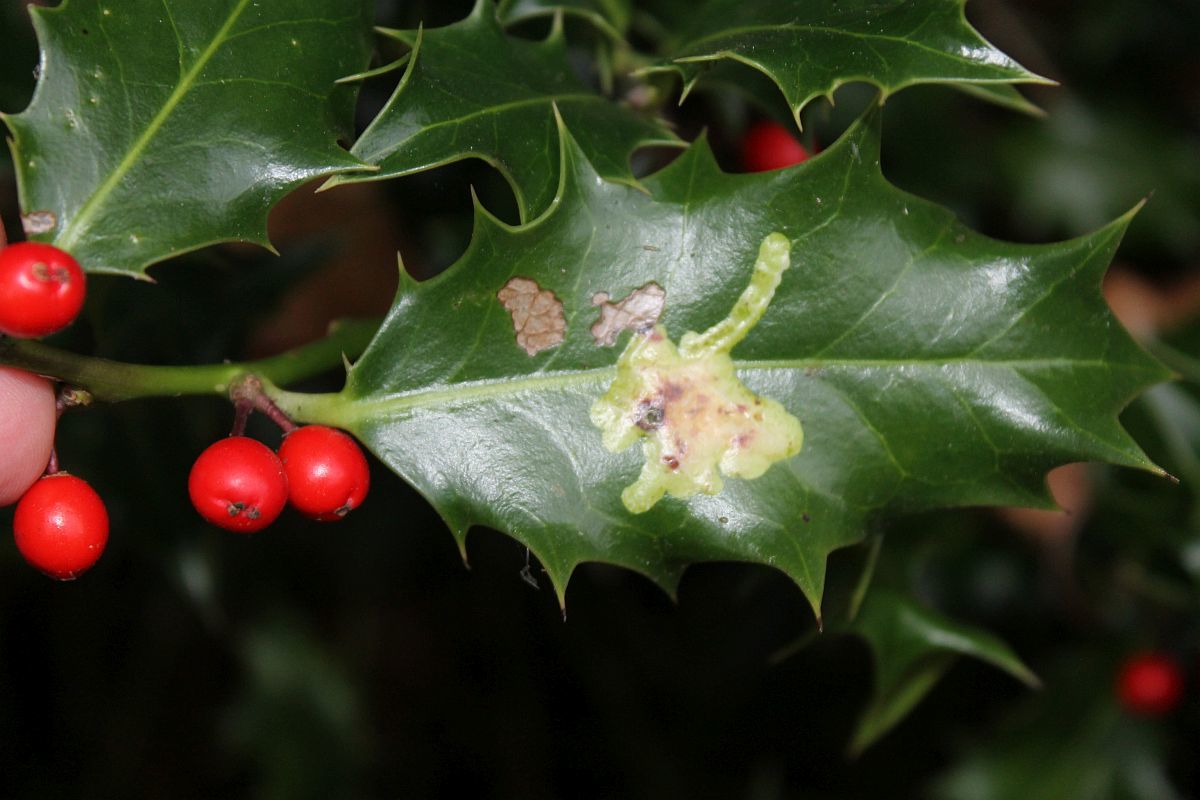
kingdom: Animalia
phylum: Arthropoda
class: Insecta
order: Diptera
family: Agromyzidae
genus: Phytomyza
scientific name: Phytomyza ilicis
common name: Holly leafminer
